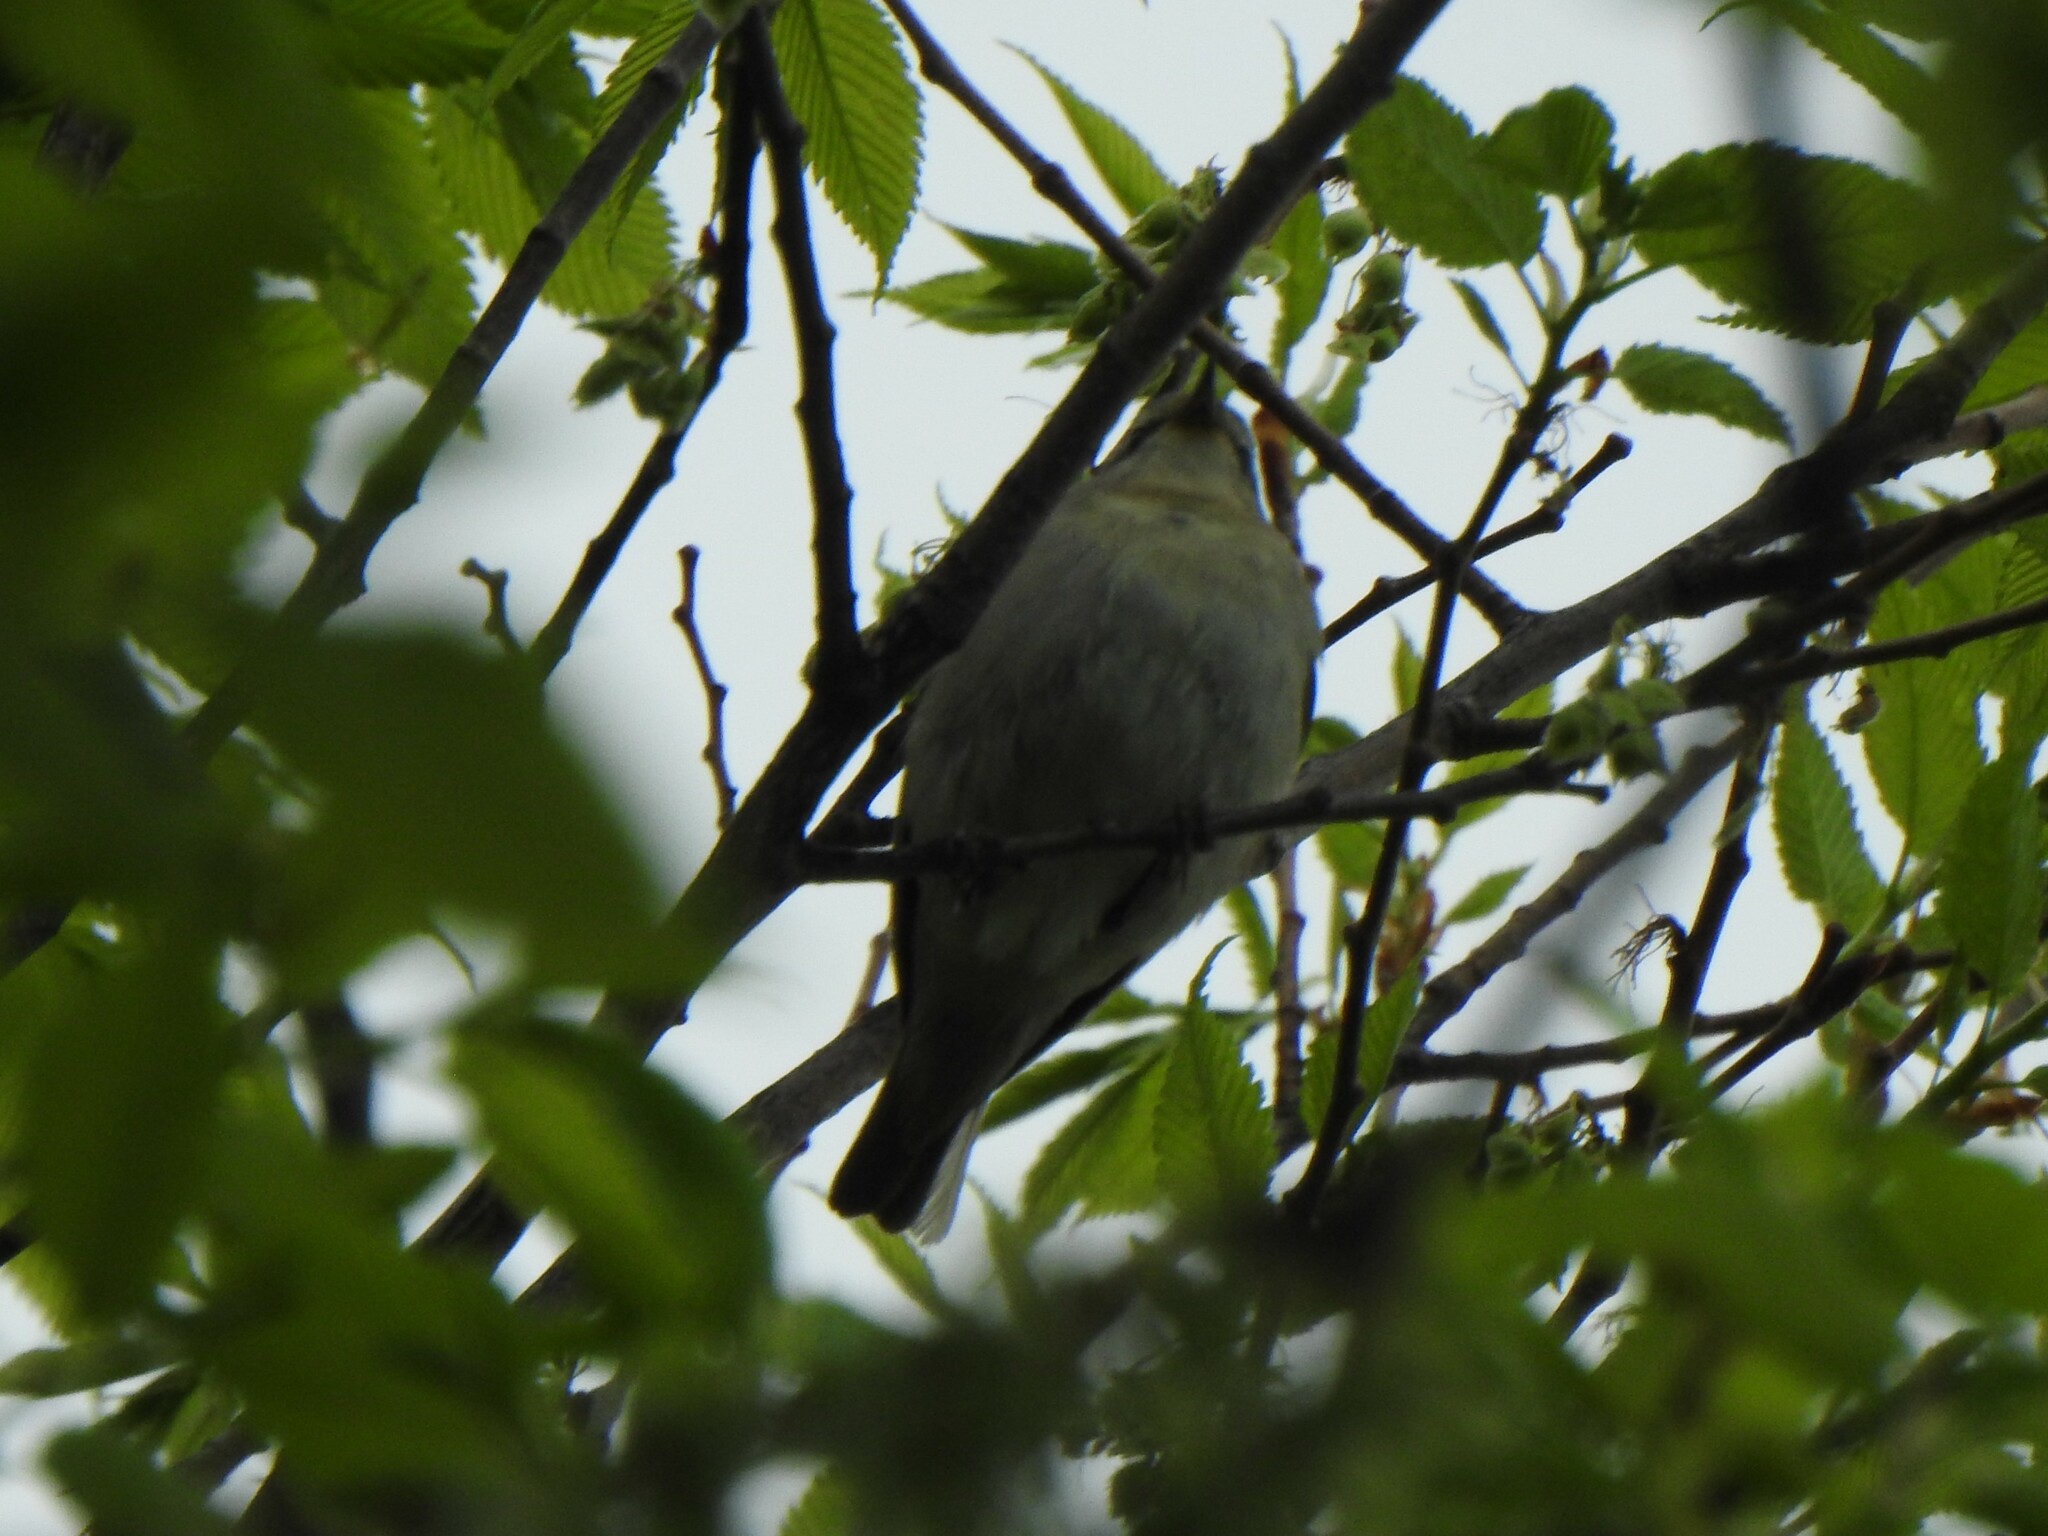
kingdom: Animalia
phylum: Chordata
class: Aves
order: Passeriformes
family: Parulidae
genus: Leiothlypis
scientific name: Leiothlypis peregrina
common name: Tennessee warbler
